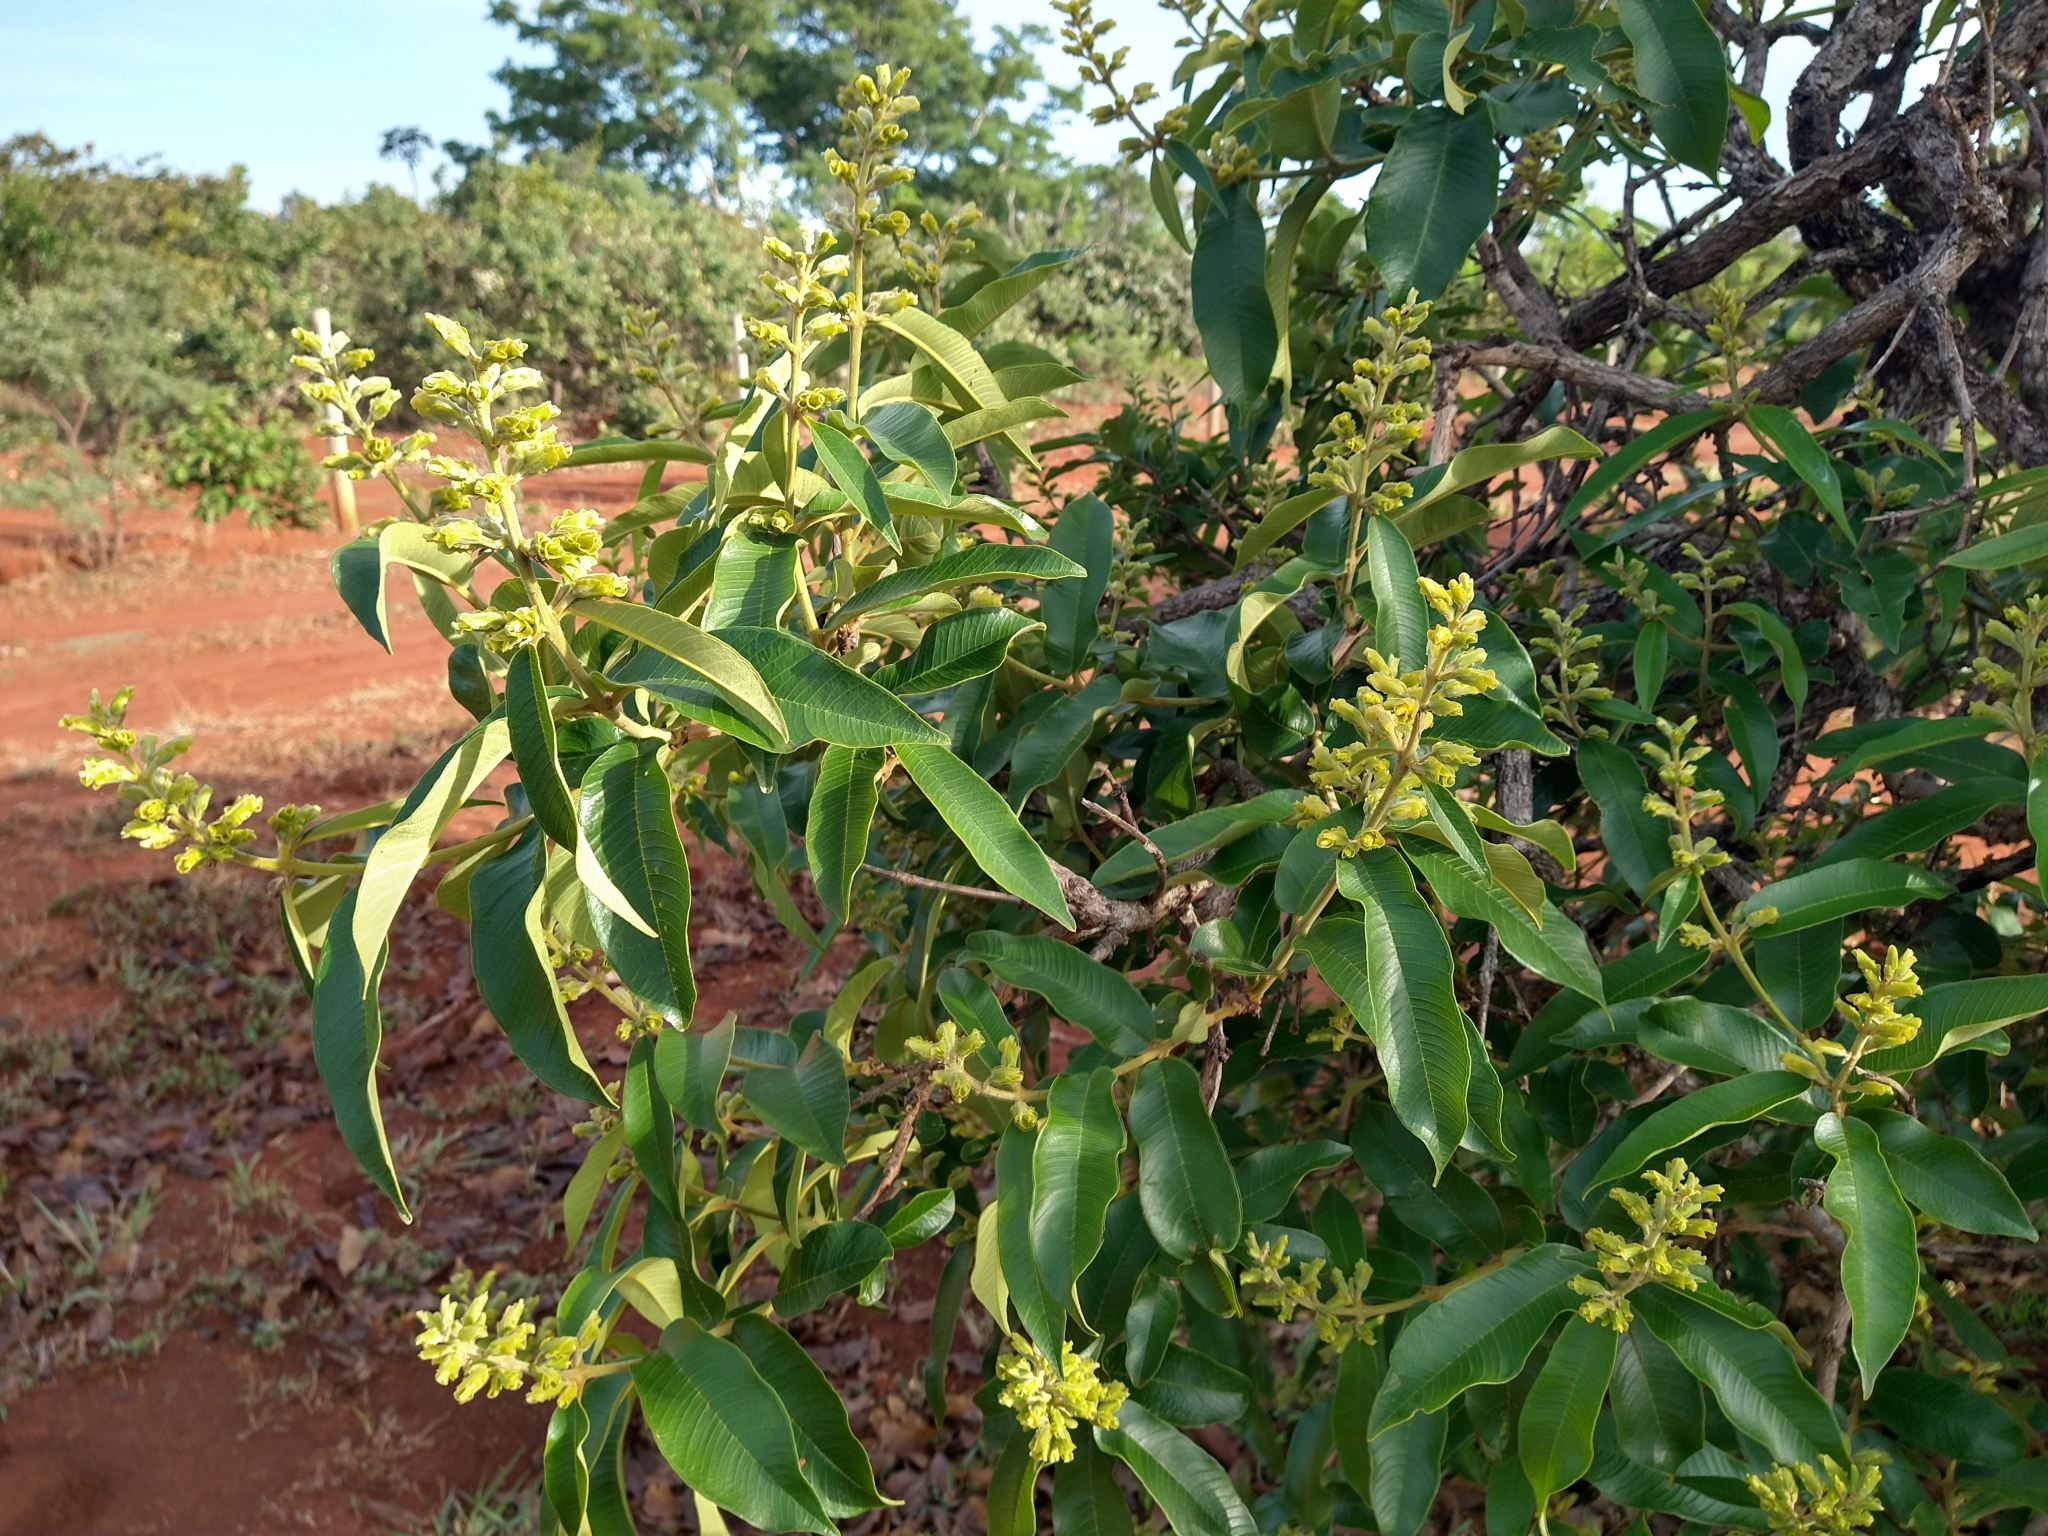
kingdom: Plantae
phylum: Tracheophyta
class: Magnoliopsida
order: Myrtales
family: Vochysiaceae
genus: Qualea
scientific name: Qualea grandiflora
